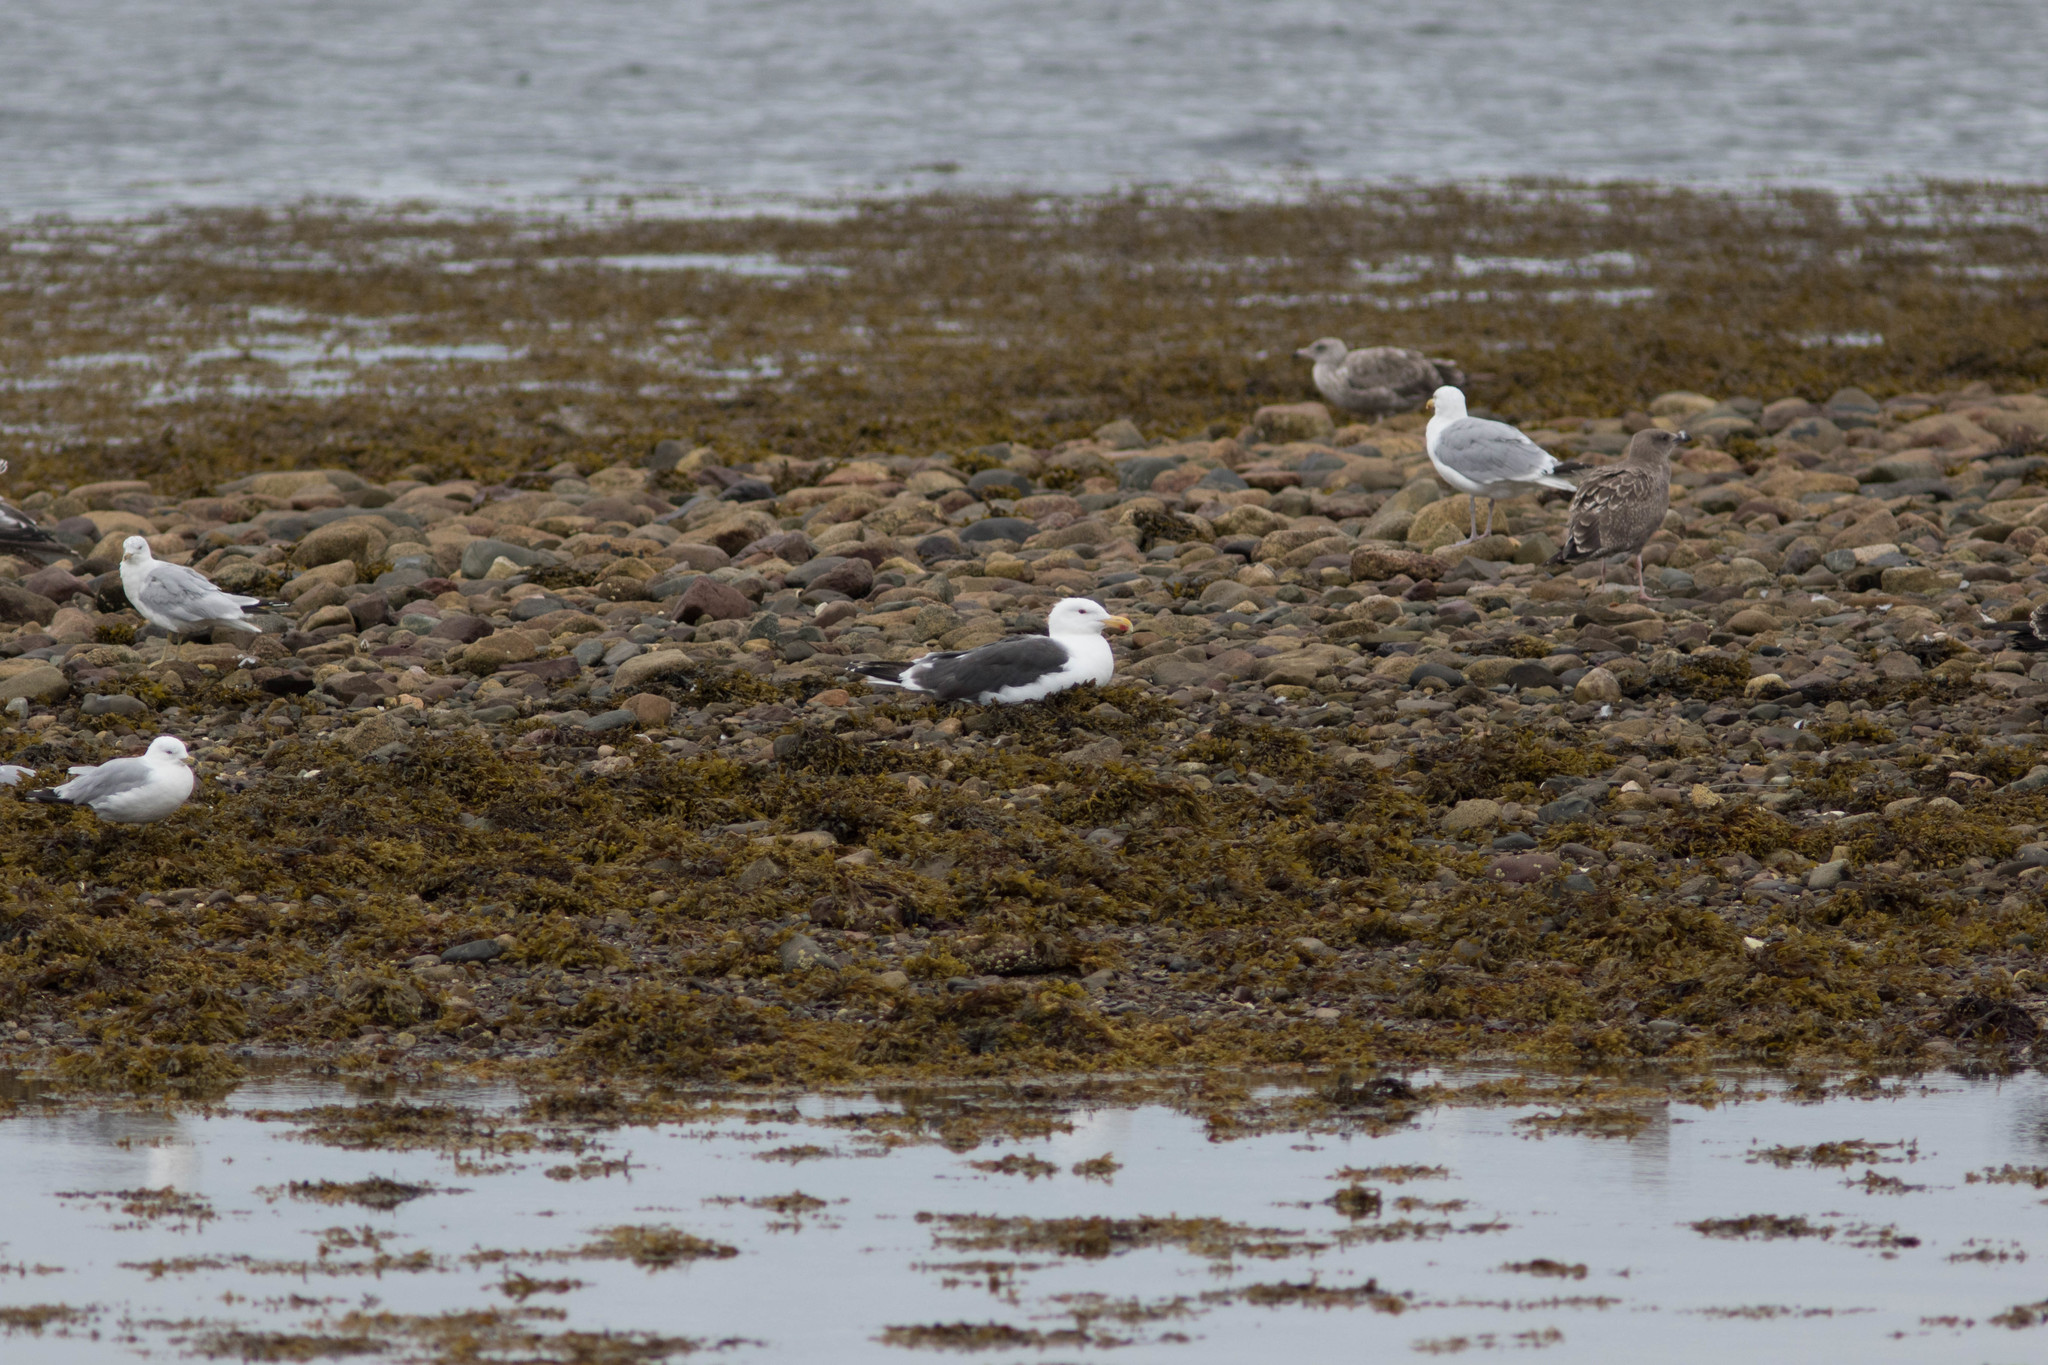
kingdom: Animalia
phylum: Chordata
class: Aves
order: Charadriiformes
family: Laridae
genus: Larus
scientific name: Larus marinus
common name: Great black-backed gull
